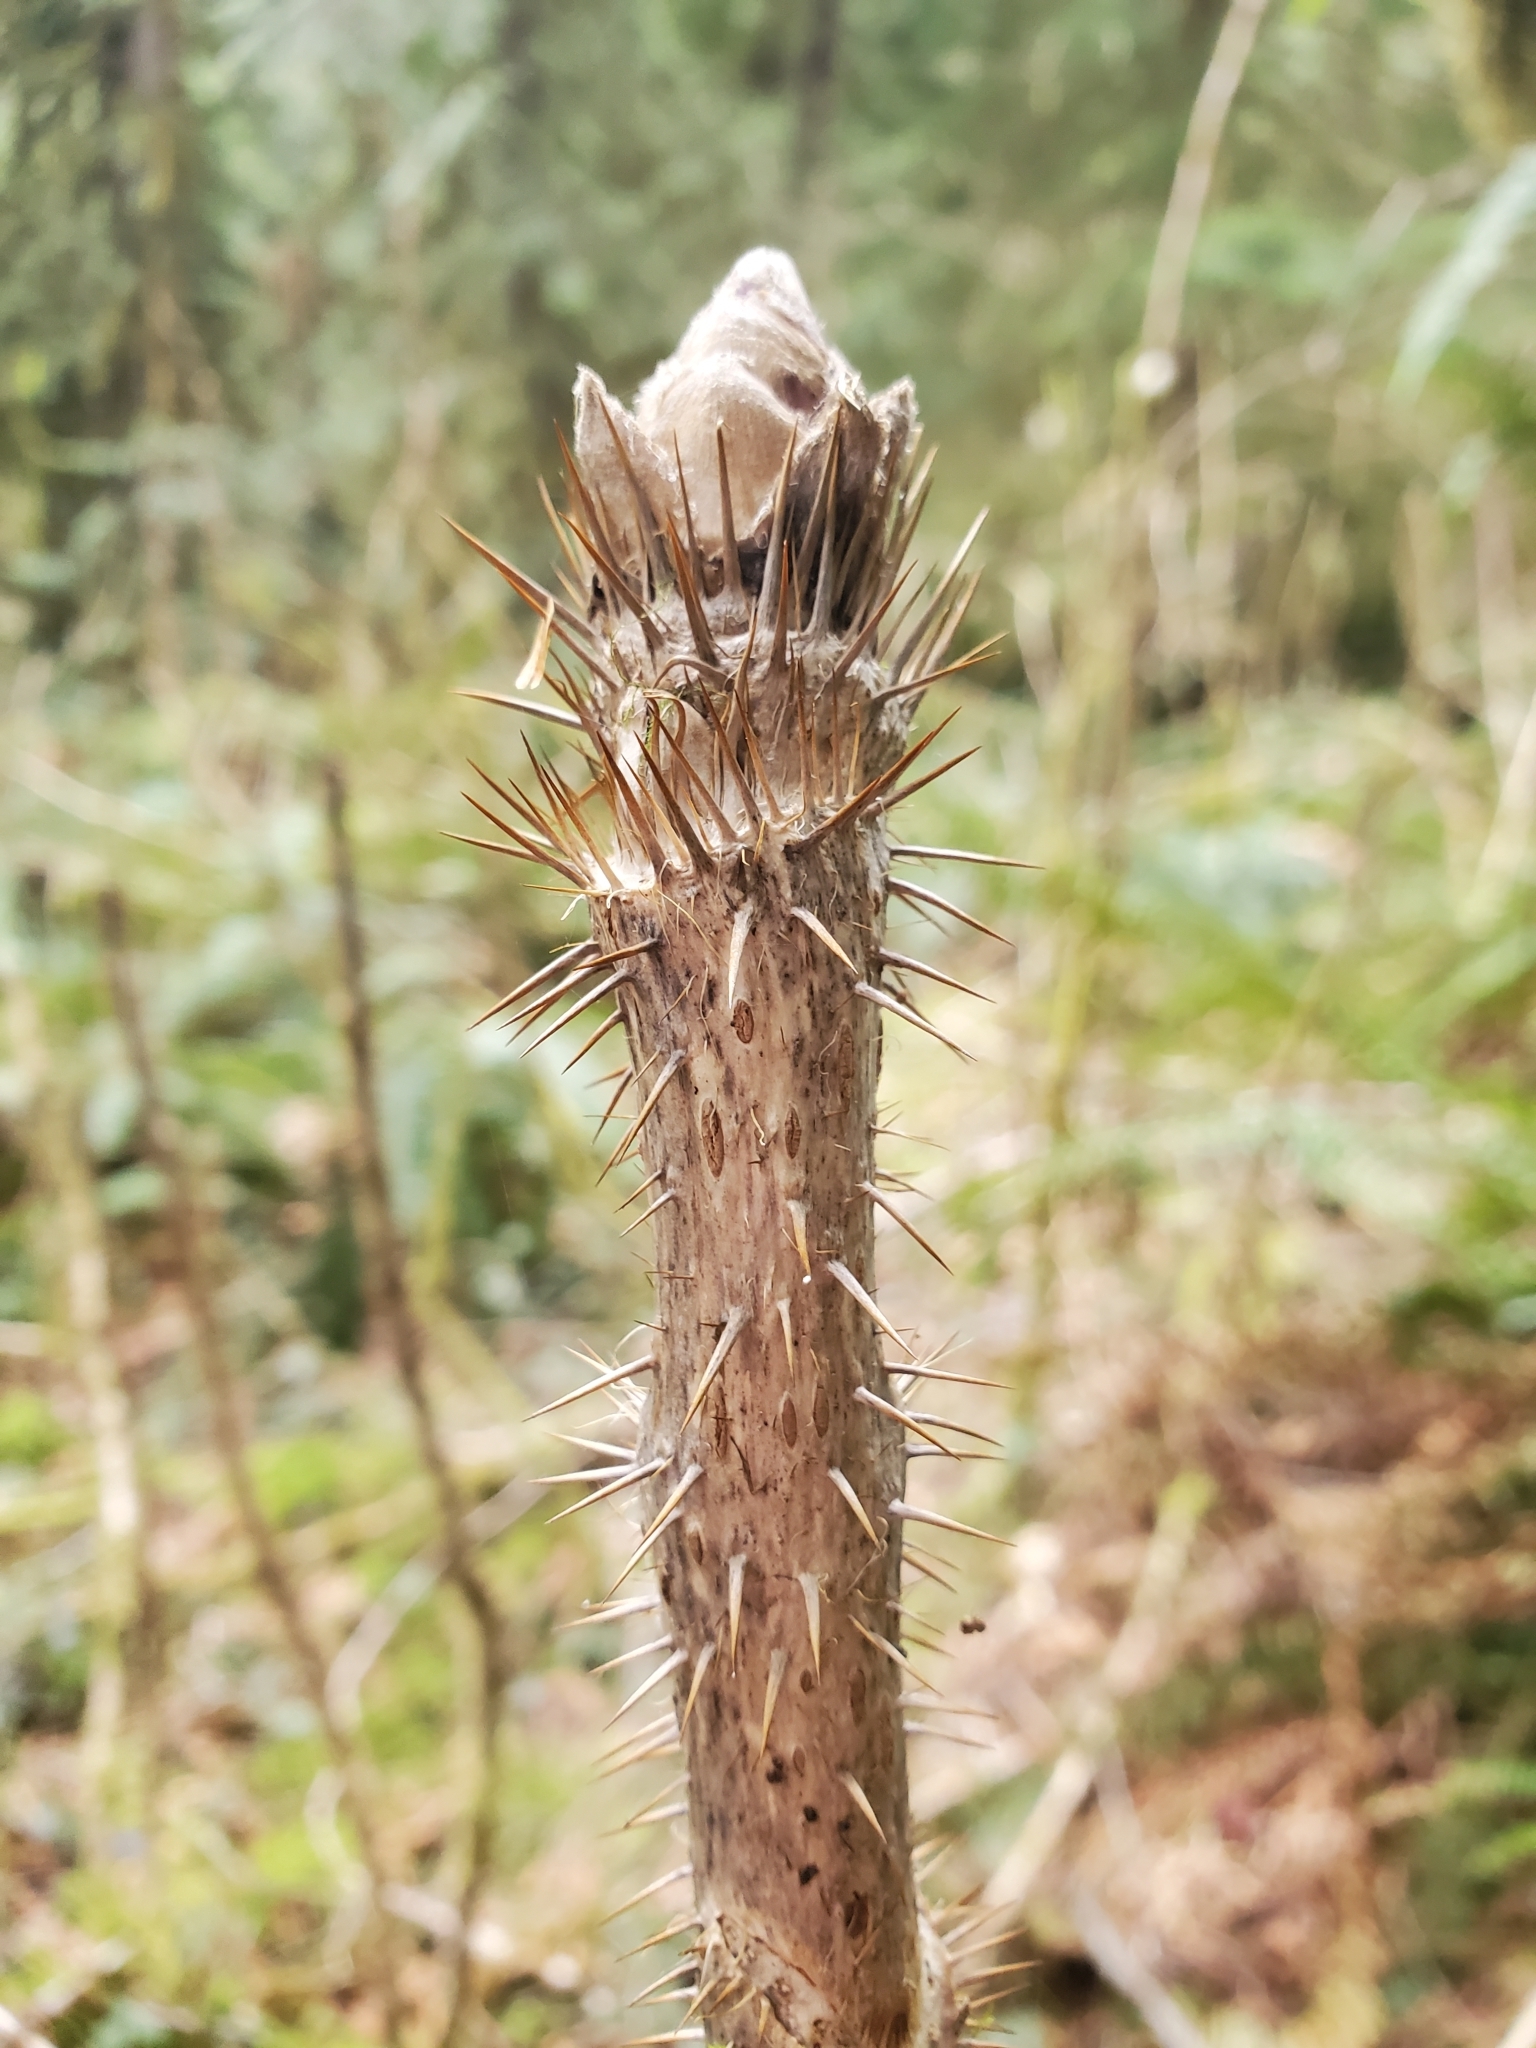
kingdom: Plantae
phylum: Tracheophyta
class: Magnoliopsida
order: Apiales
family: Araliaceae
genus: Oplopanax
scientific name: Oplopanax horridus
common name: Devil's walking-stick
